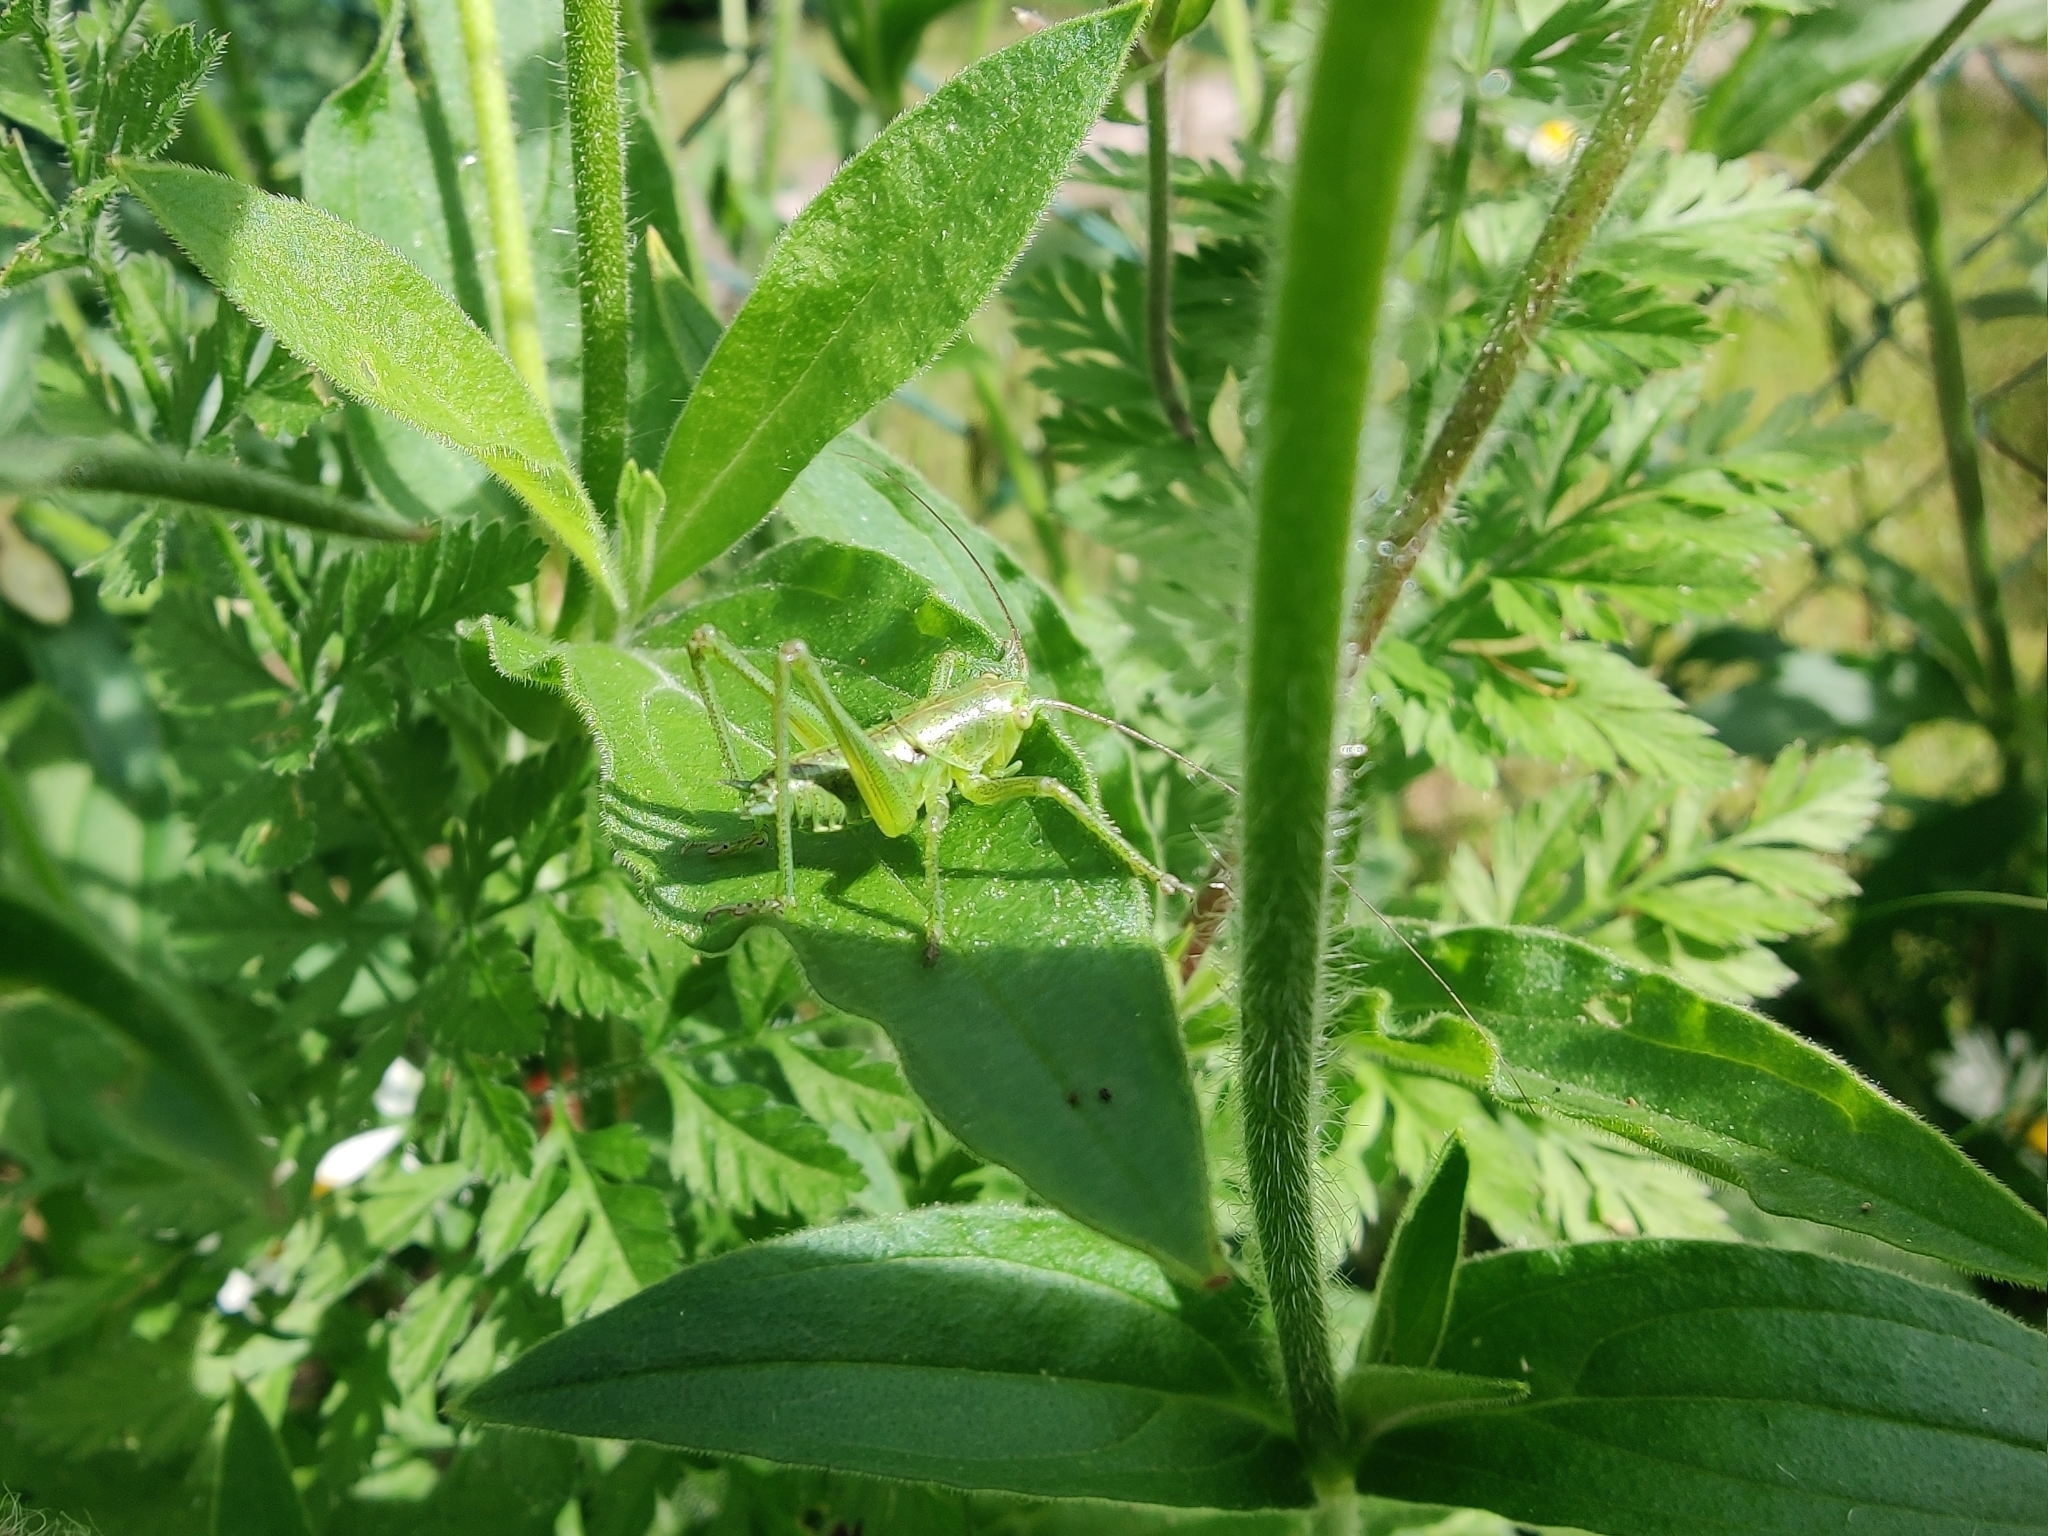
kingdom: Animalia
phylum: Arthropoda
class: Insecta
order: Orthoptera
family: Tettigoniidae
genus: Tettigonia
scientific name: Tettigonia viridissima
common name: Great green bush-cricket
